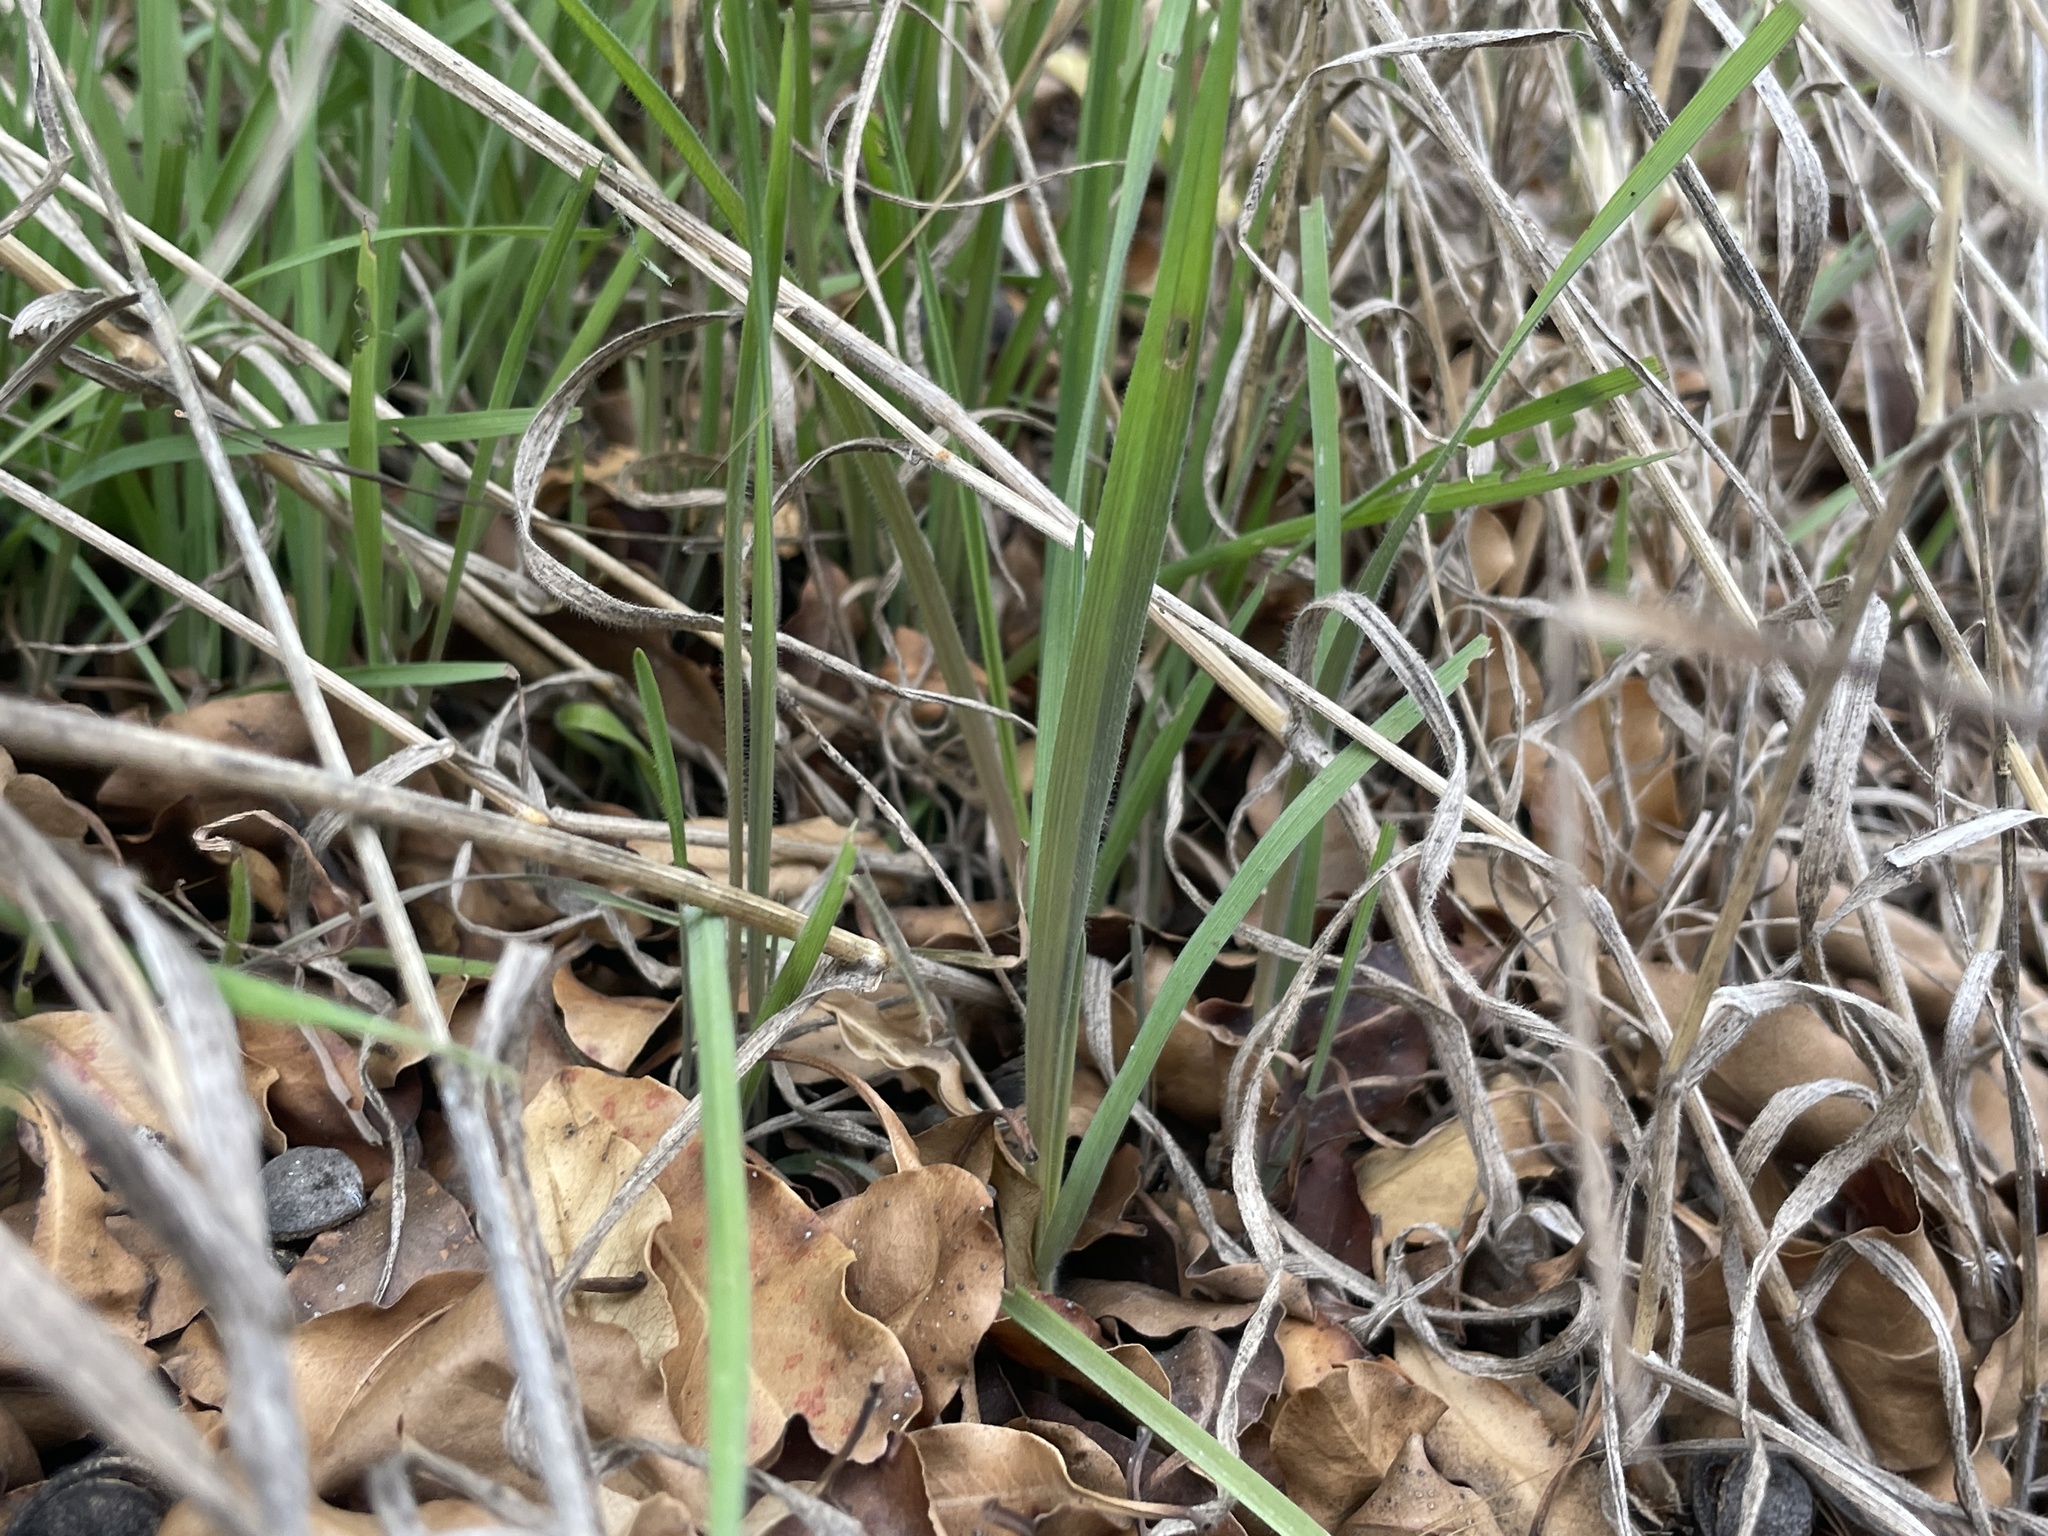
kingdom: Plantae
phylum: Tracheophyta
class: Liliopsida
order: Poales
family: Poaceae
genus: Bromus
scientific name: Bromus diandrus
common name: Ripgut brome
